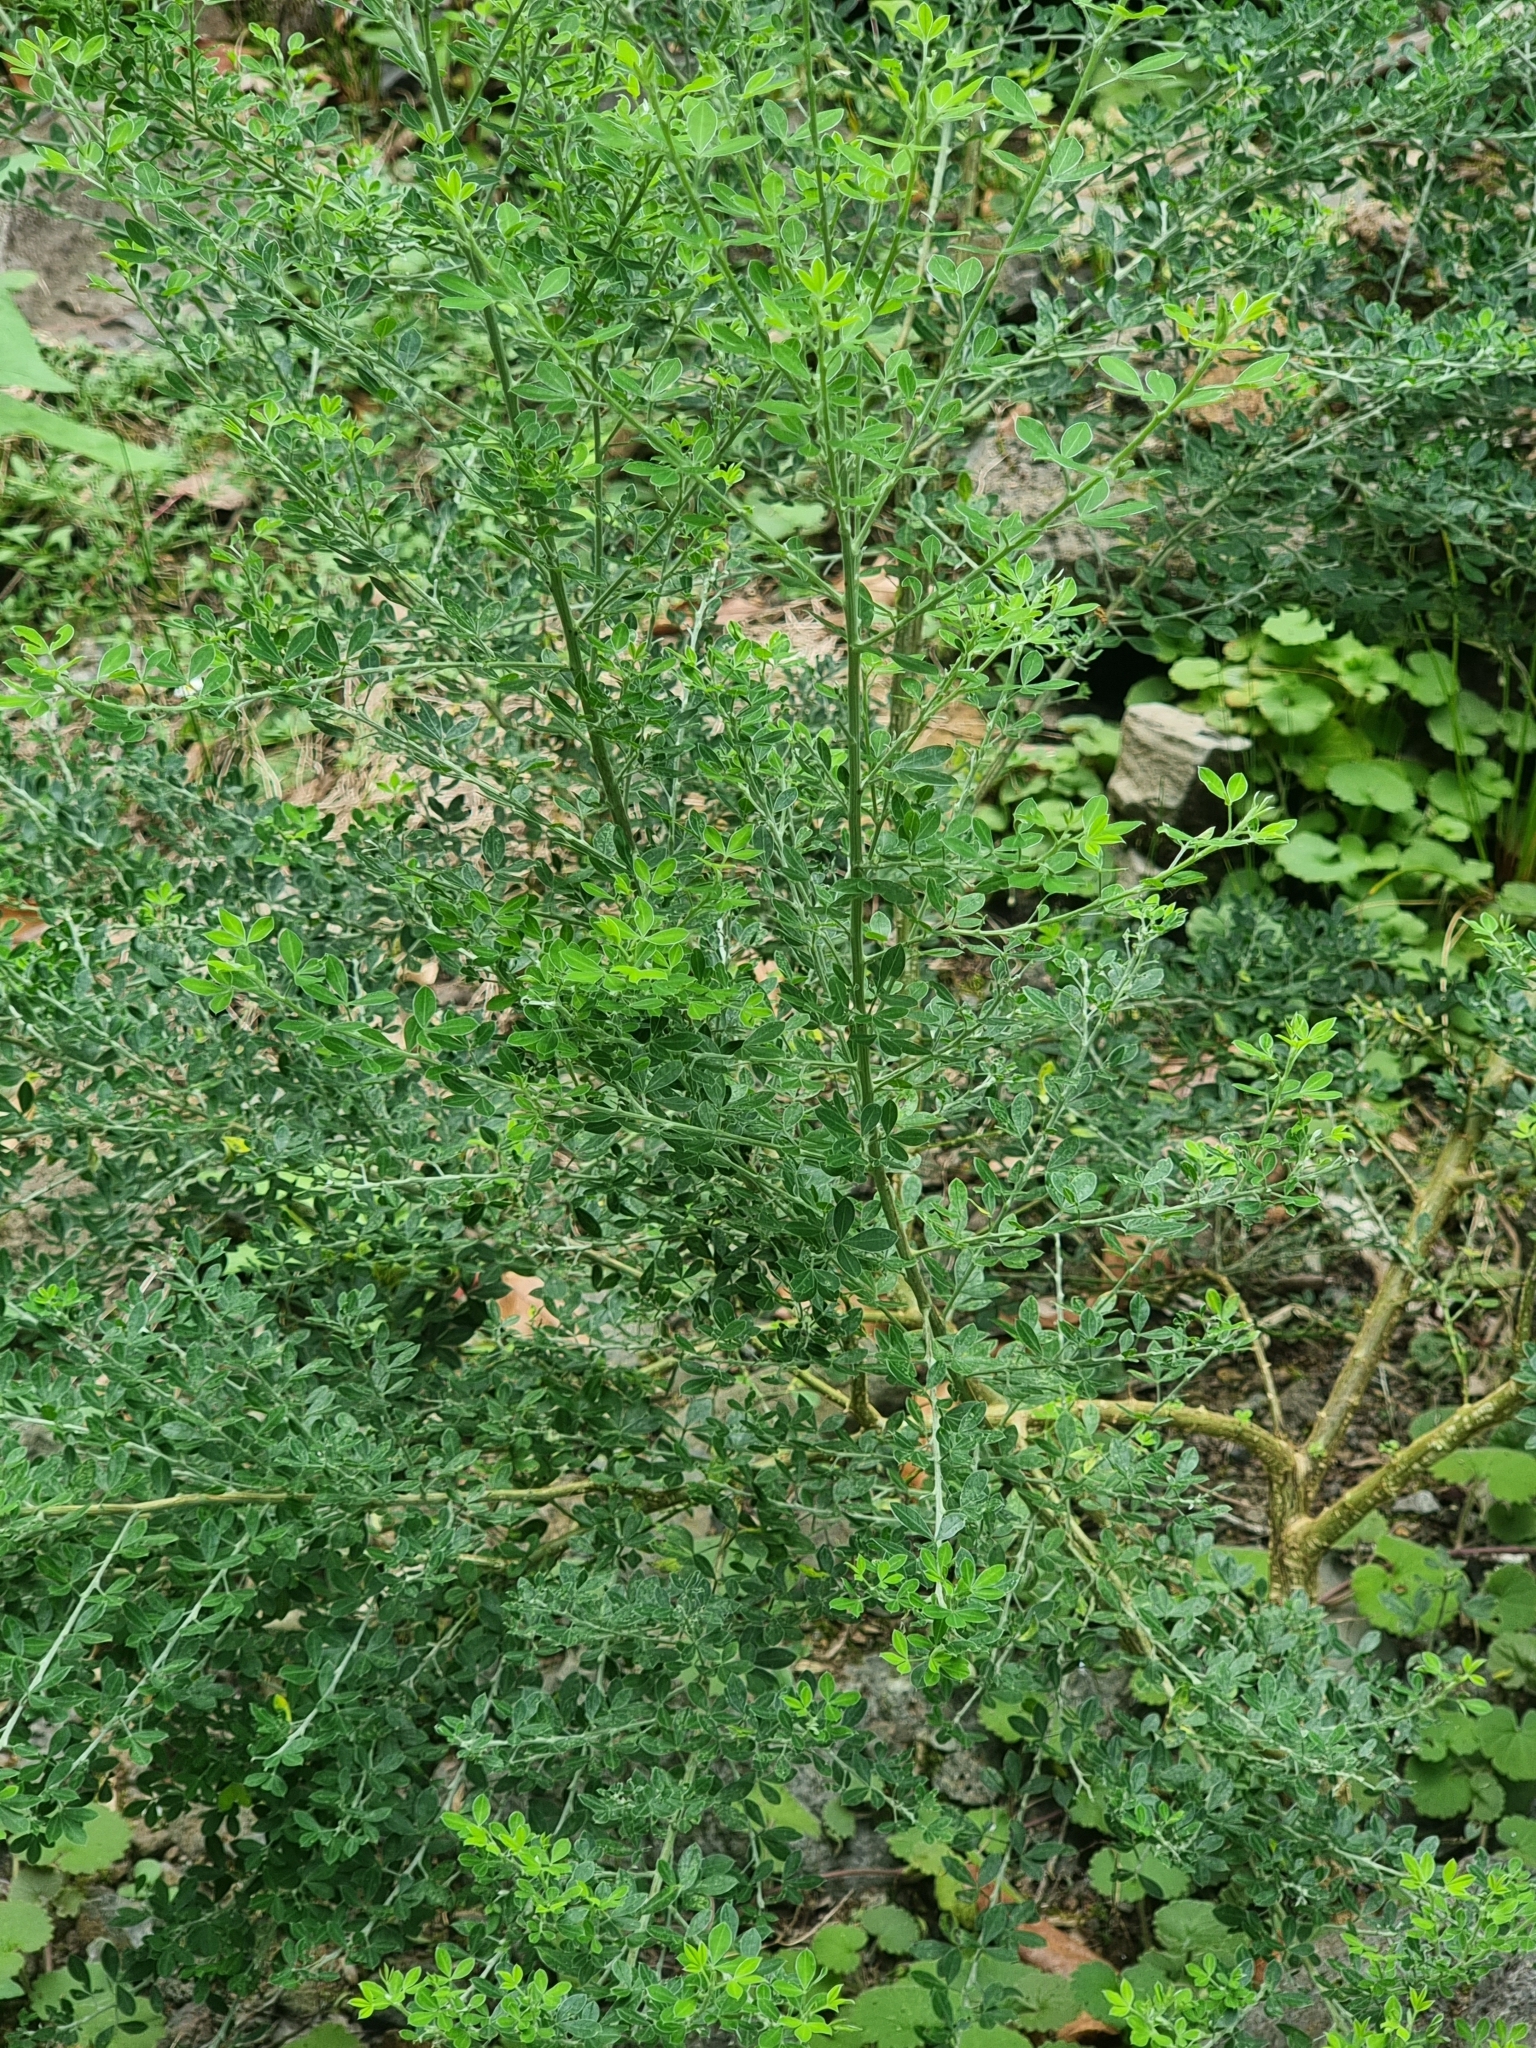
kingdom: Plantae
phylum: Tracheophyta
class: Magnoliopsida
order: Fabales
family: Fabaceae
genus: Genista
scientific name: Genista maderensis
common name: Madeira dyer's greenweed
